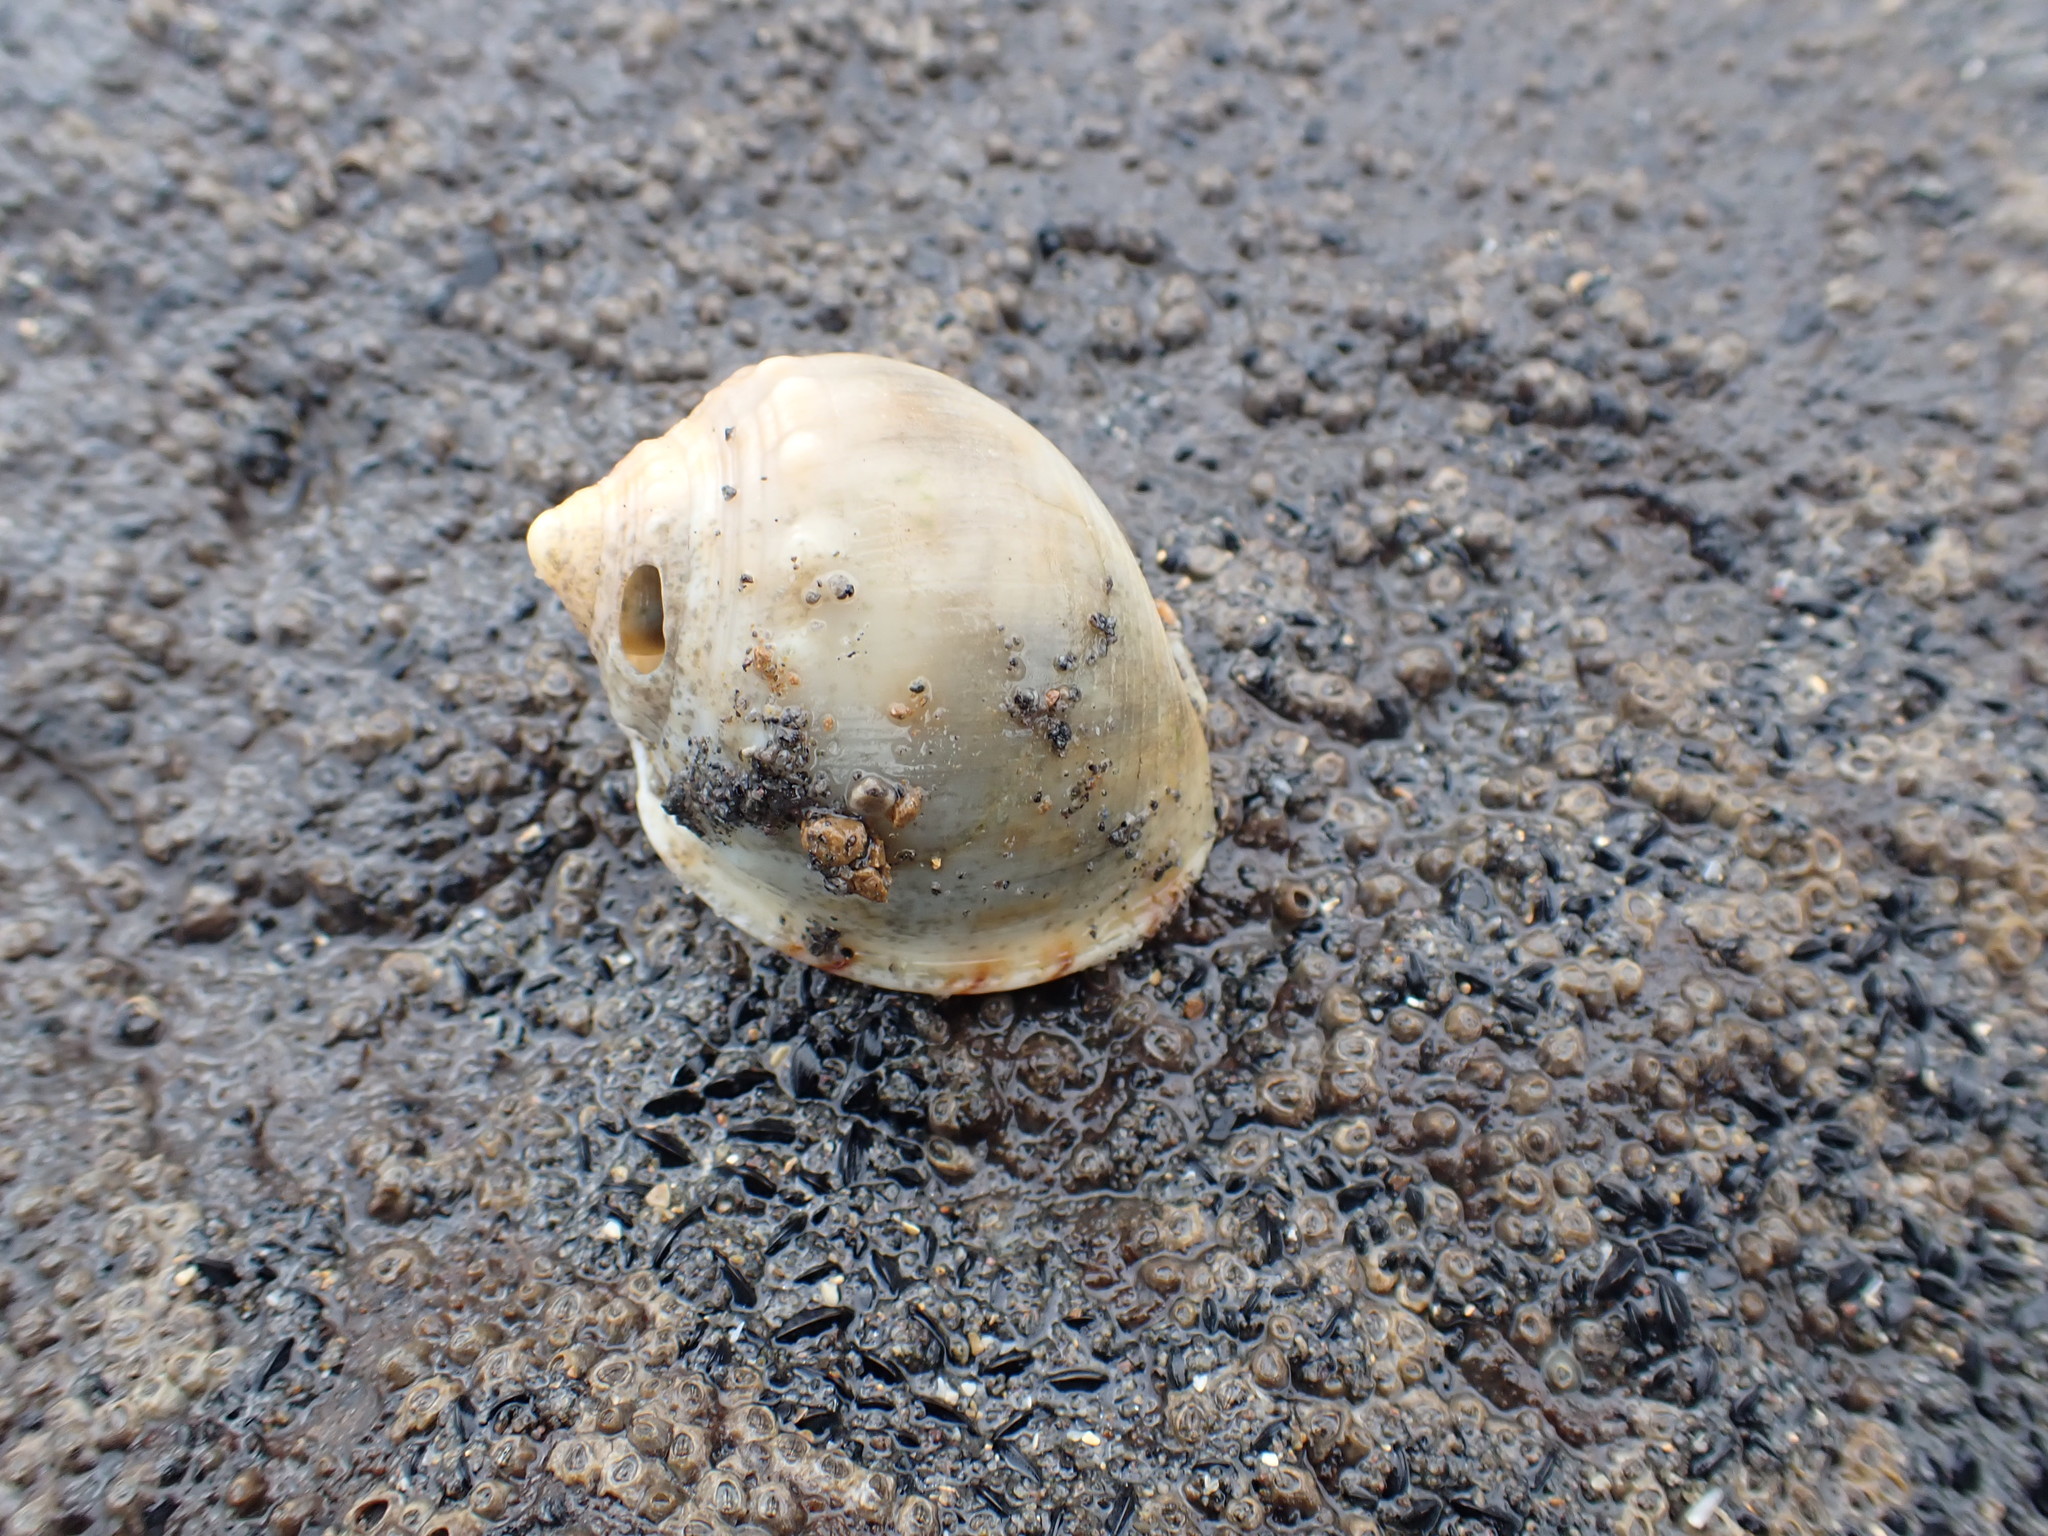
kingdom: Animalia
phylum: Mollusca
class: Gastropoda
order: Littorinimorpha
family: Cassidae
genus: Semicassis
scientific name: Semicassis pyrum
